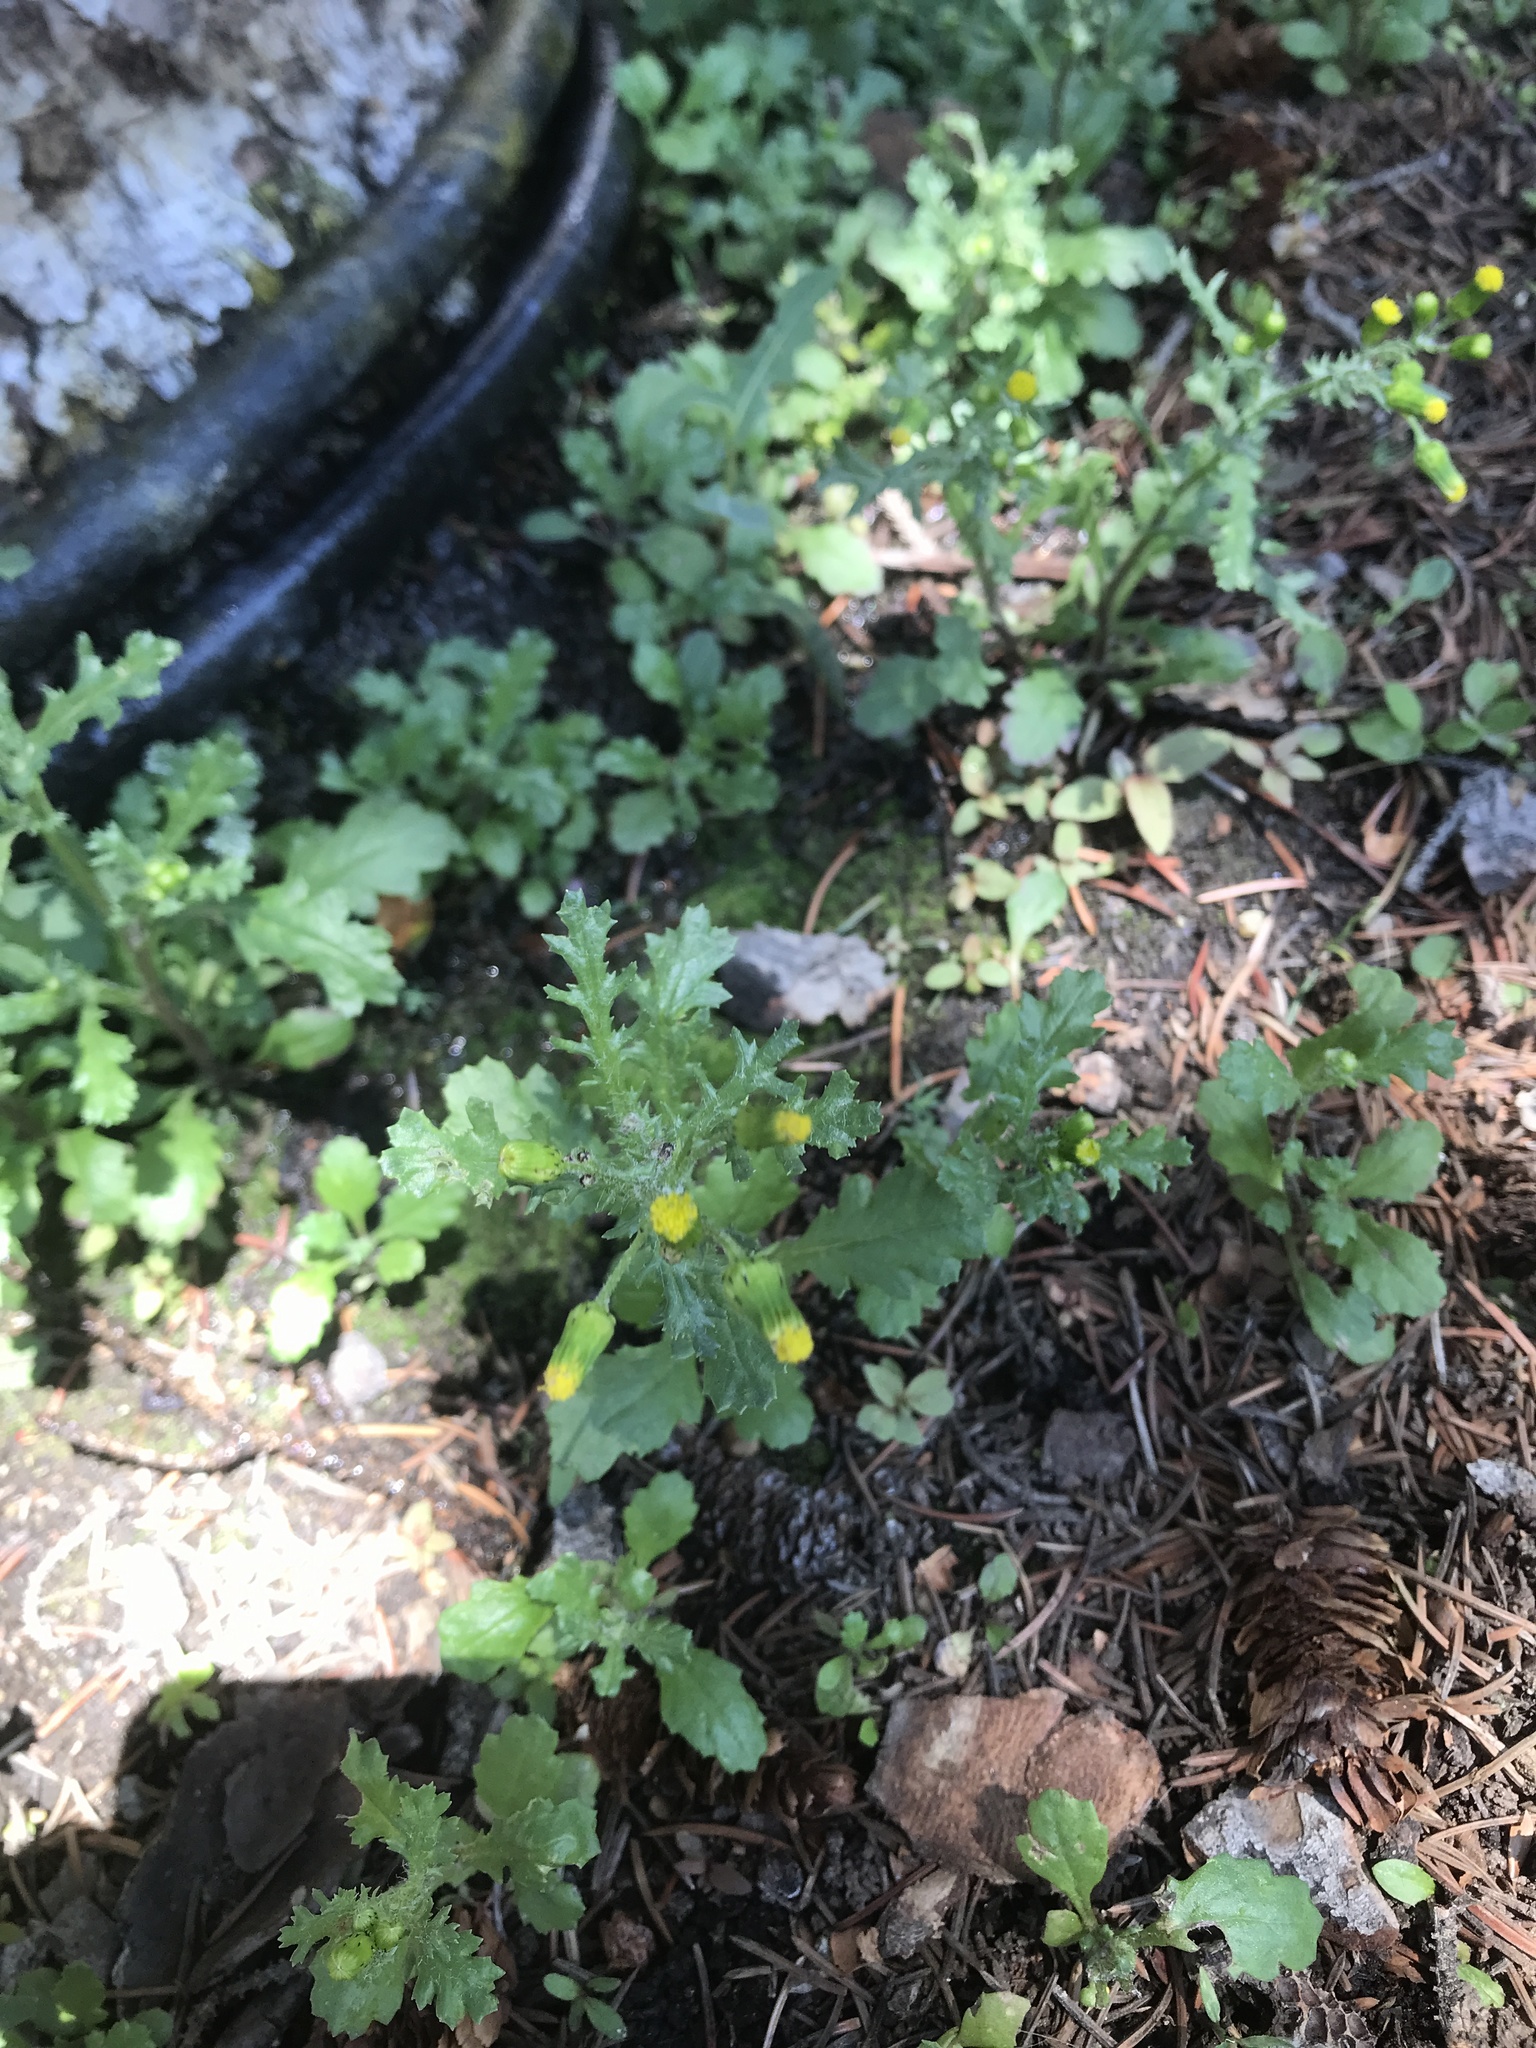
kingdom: Plantae
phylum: Tracheophyta
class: Magnoliopsida
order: Asterales
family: Asteraceae
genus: Senecio
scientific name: Senecio vulgaris
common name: Old-man-in-the-spring
